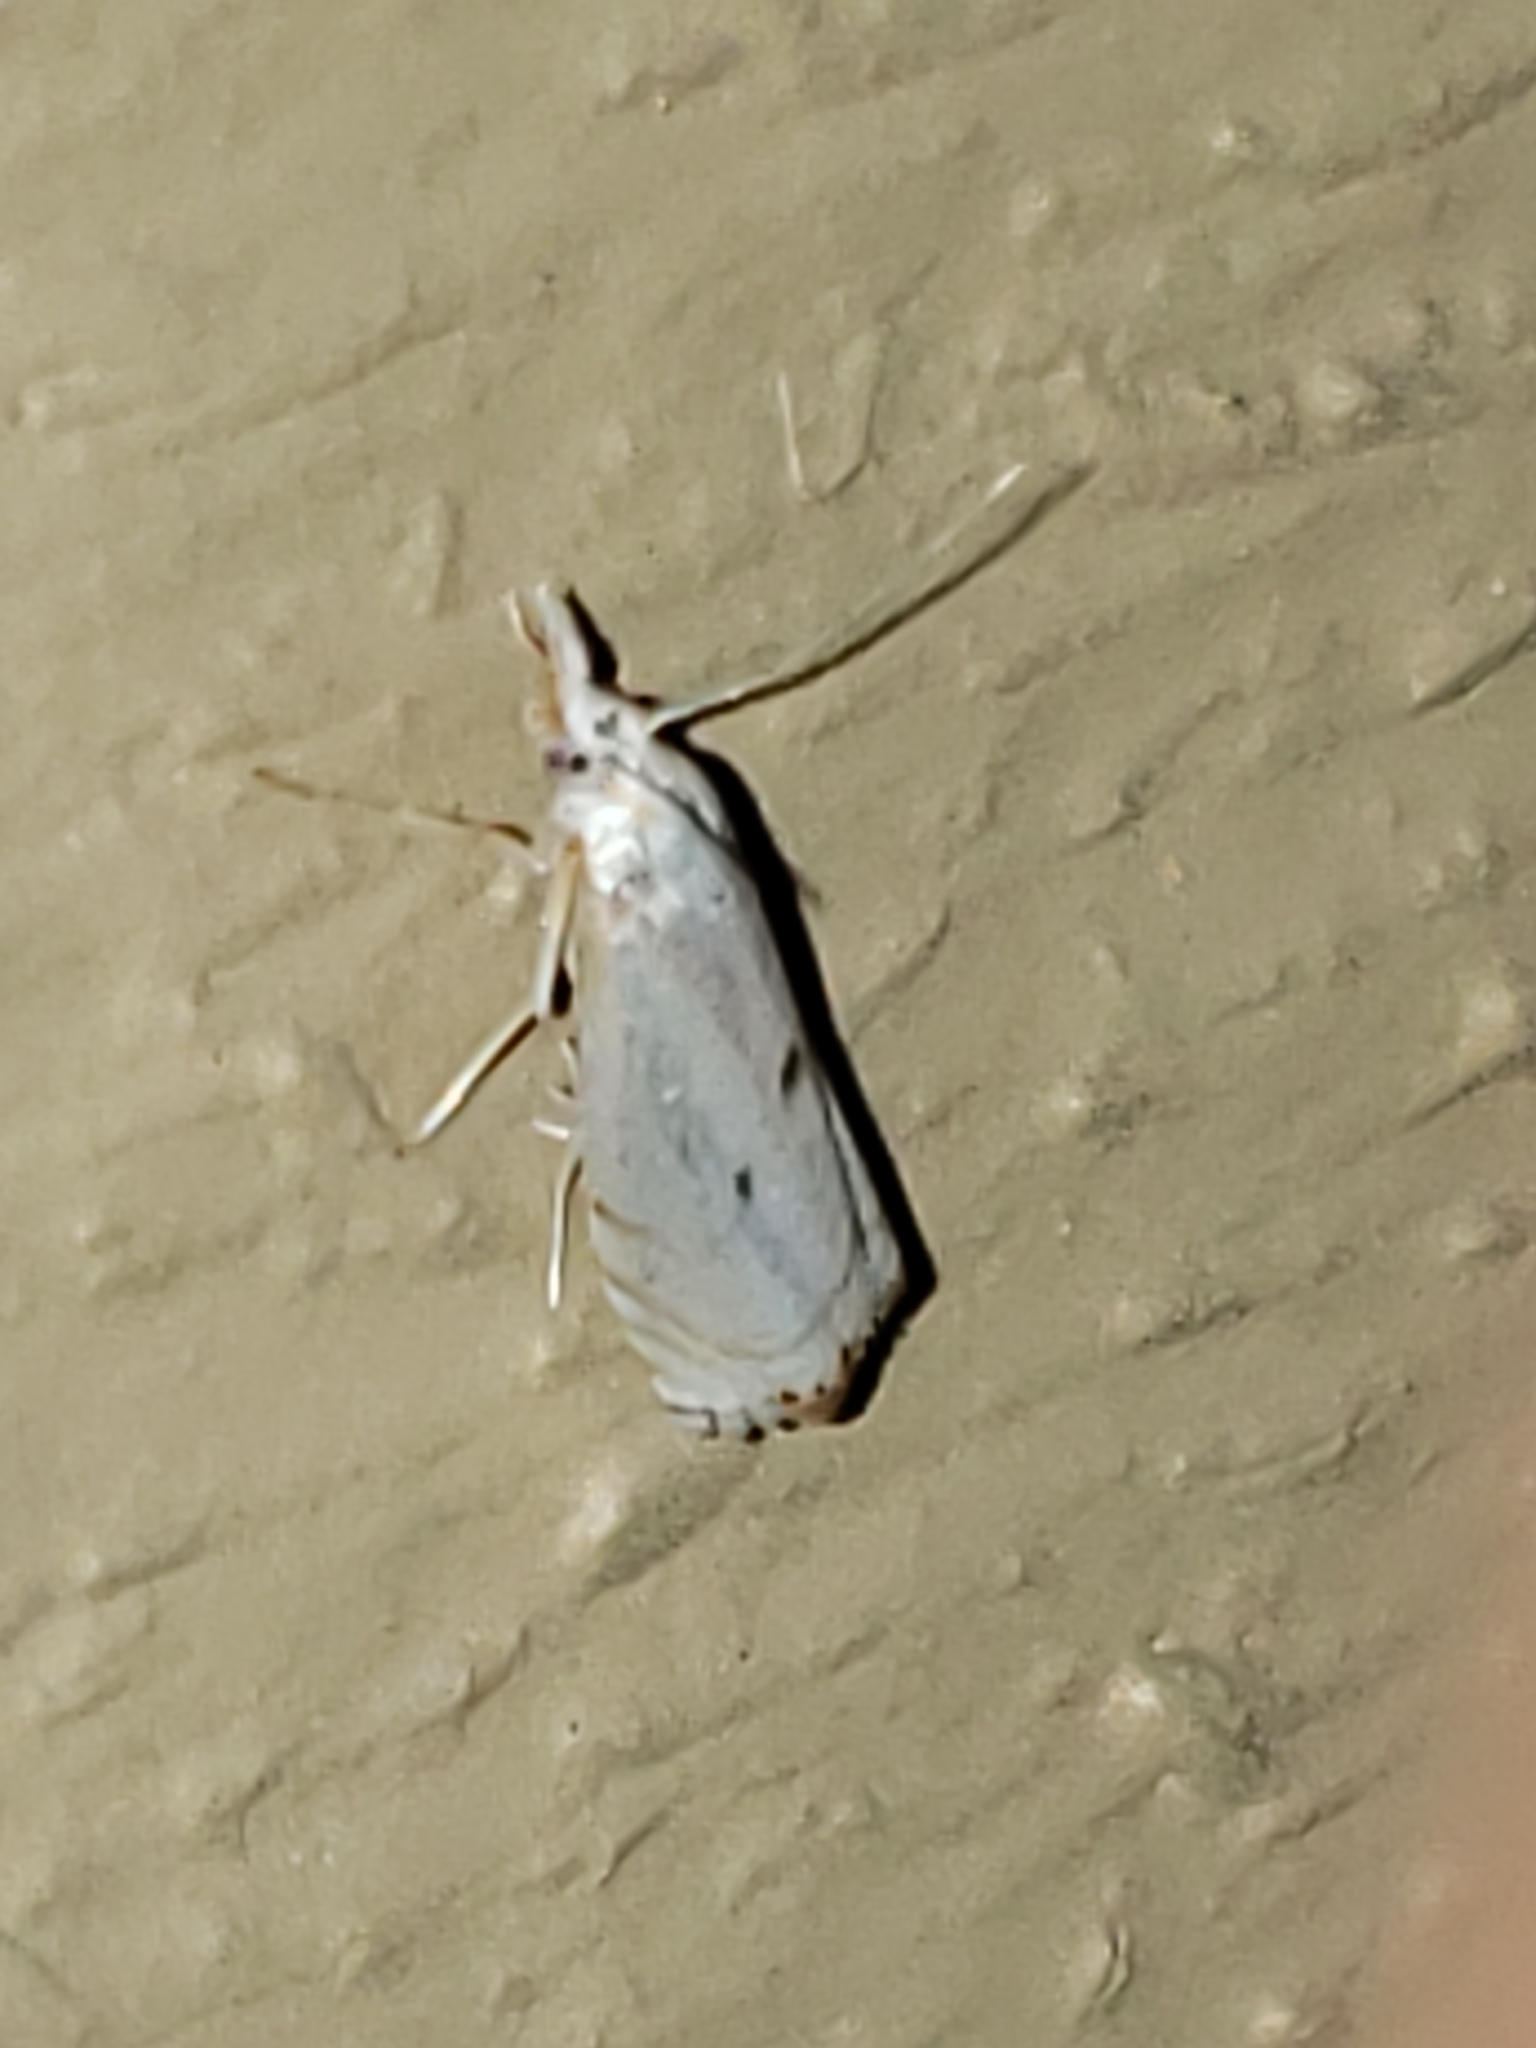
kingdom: Animalia
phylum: Arthropoda
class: Insecta
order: Lepidoptera
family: Crambidae
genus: Microcrambus
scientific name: Microcrambus biguttellus
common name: Gold-stripe grass-veneer moth
